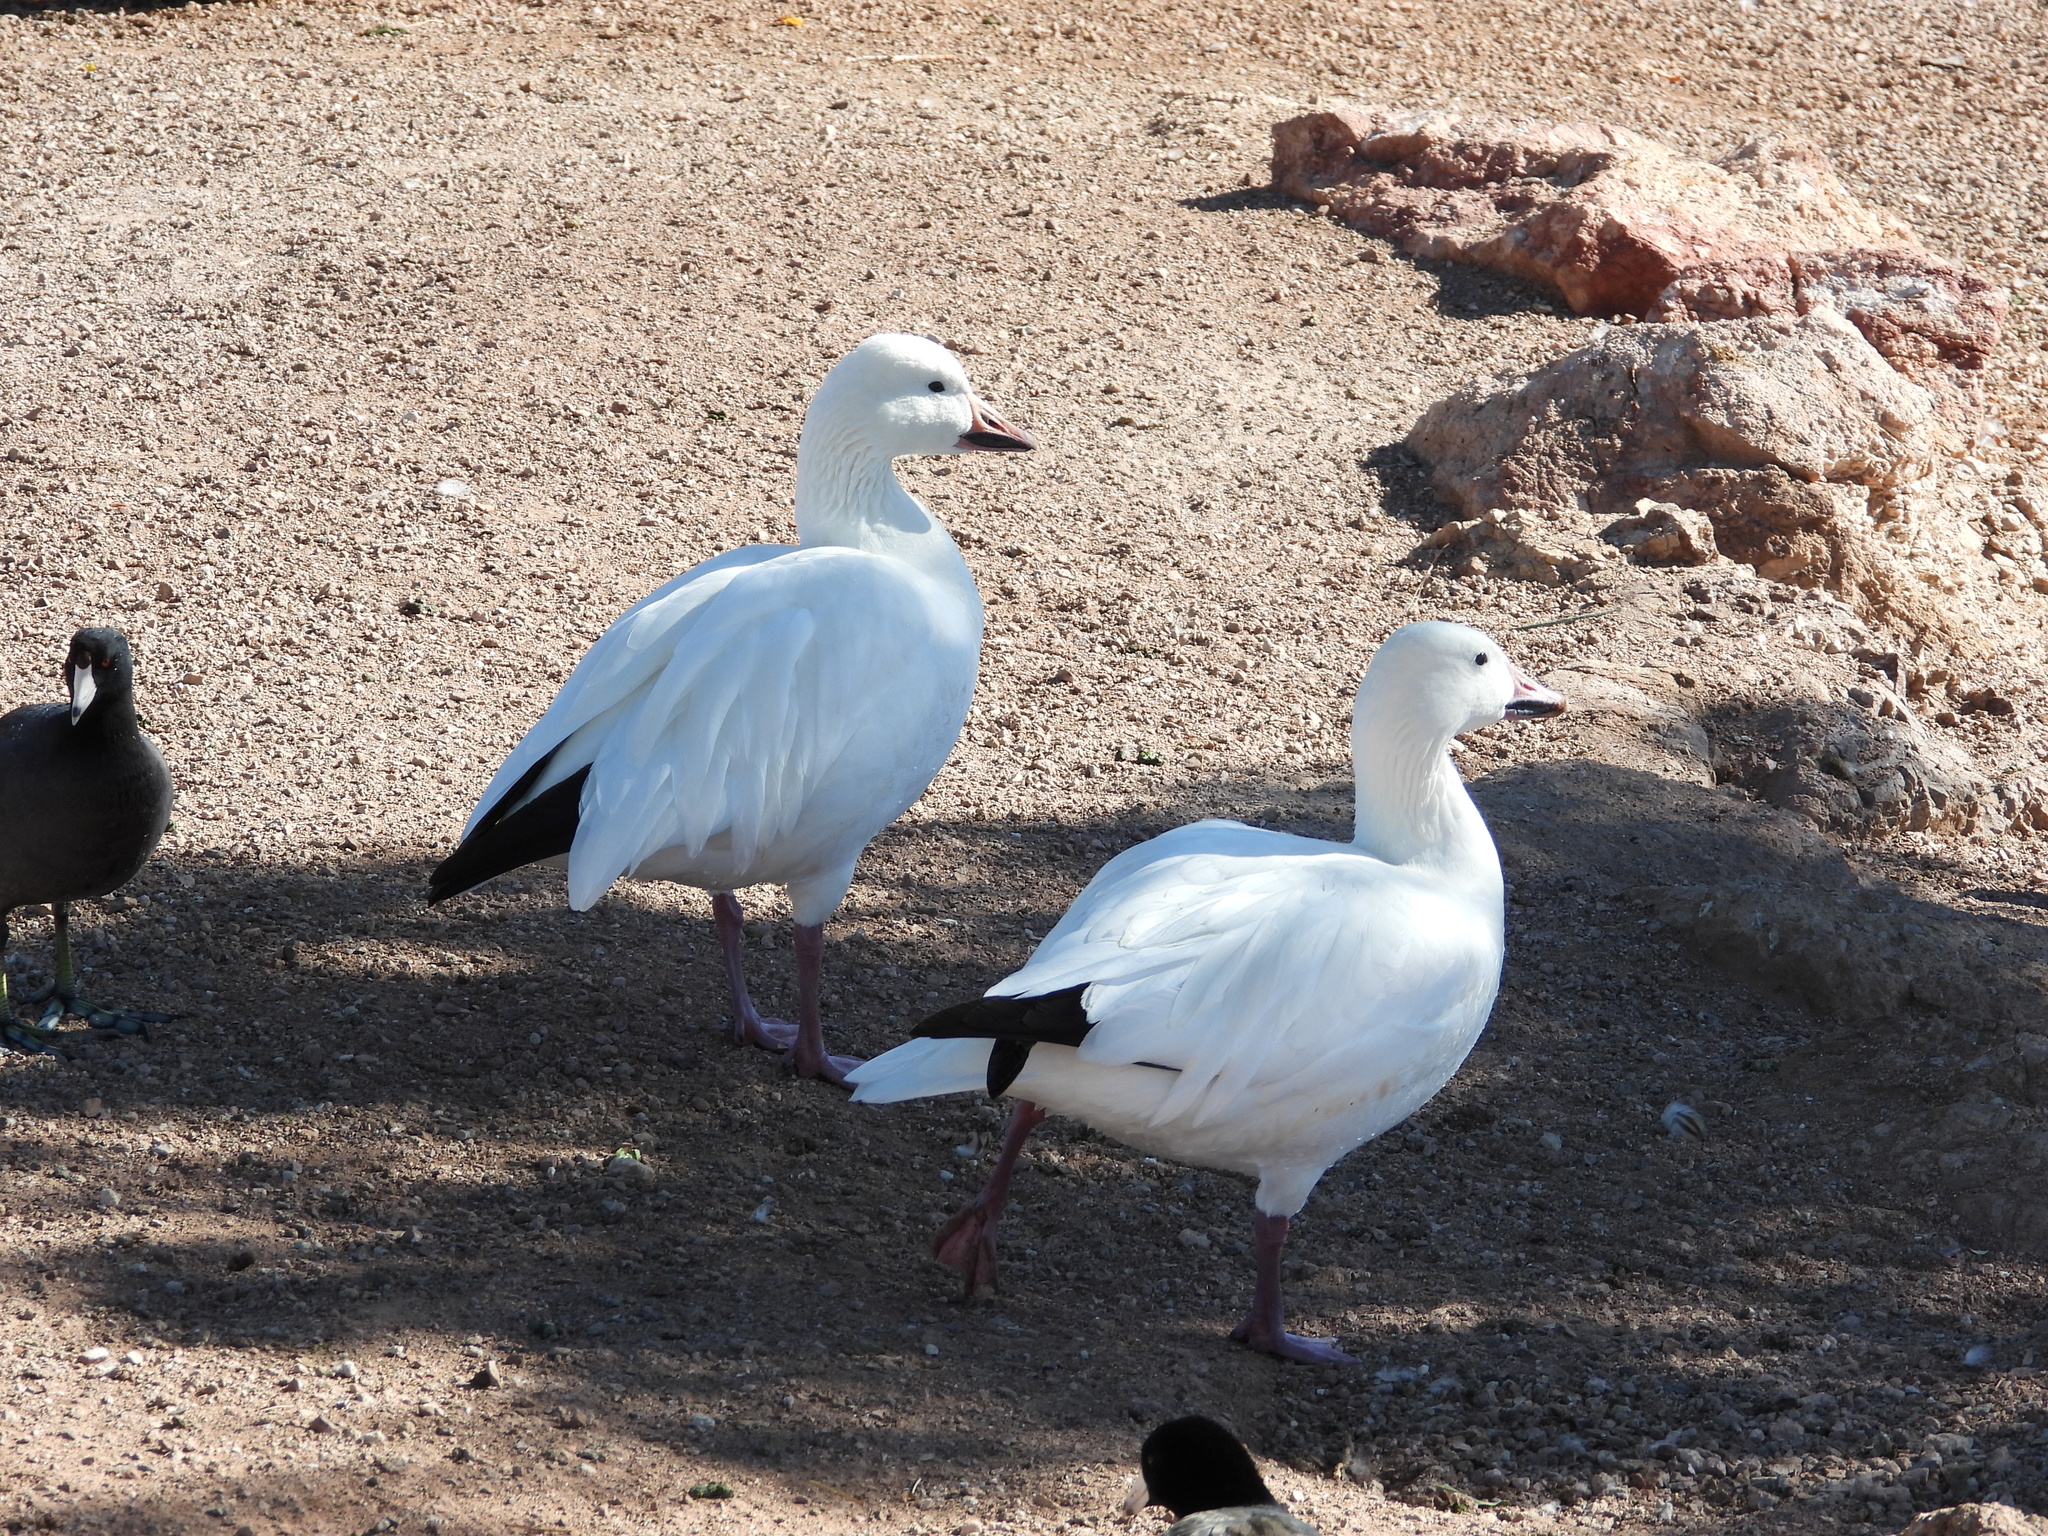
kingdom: Animalia
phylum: Chordata
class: Aves
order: Anseriformes
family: Anatidae
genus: Anser
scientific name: Anser caerulescens
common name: Snow goose
